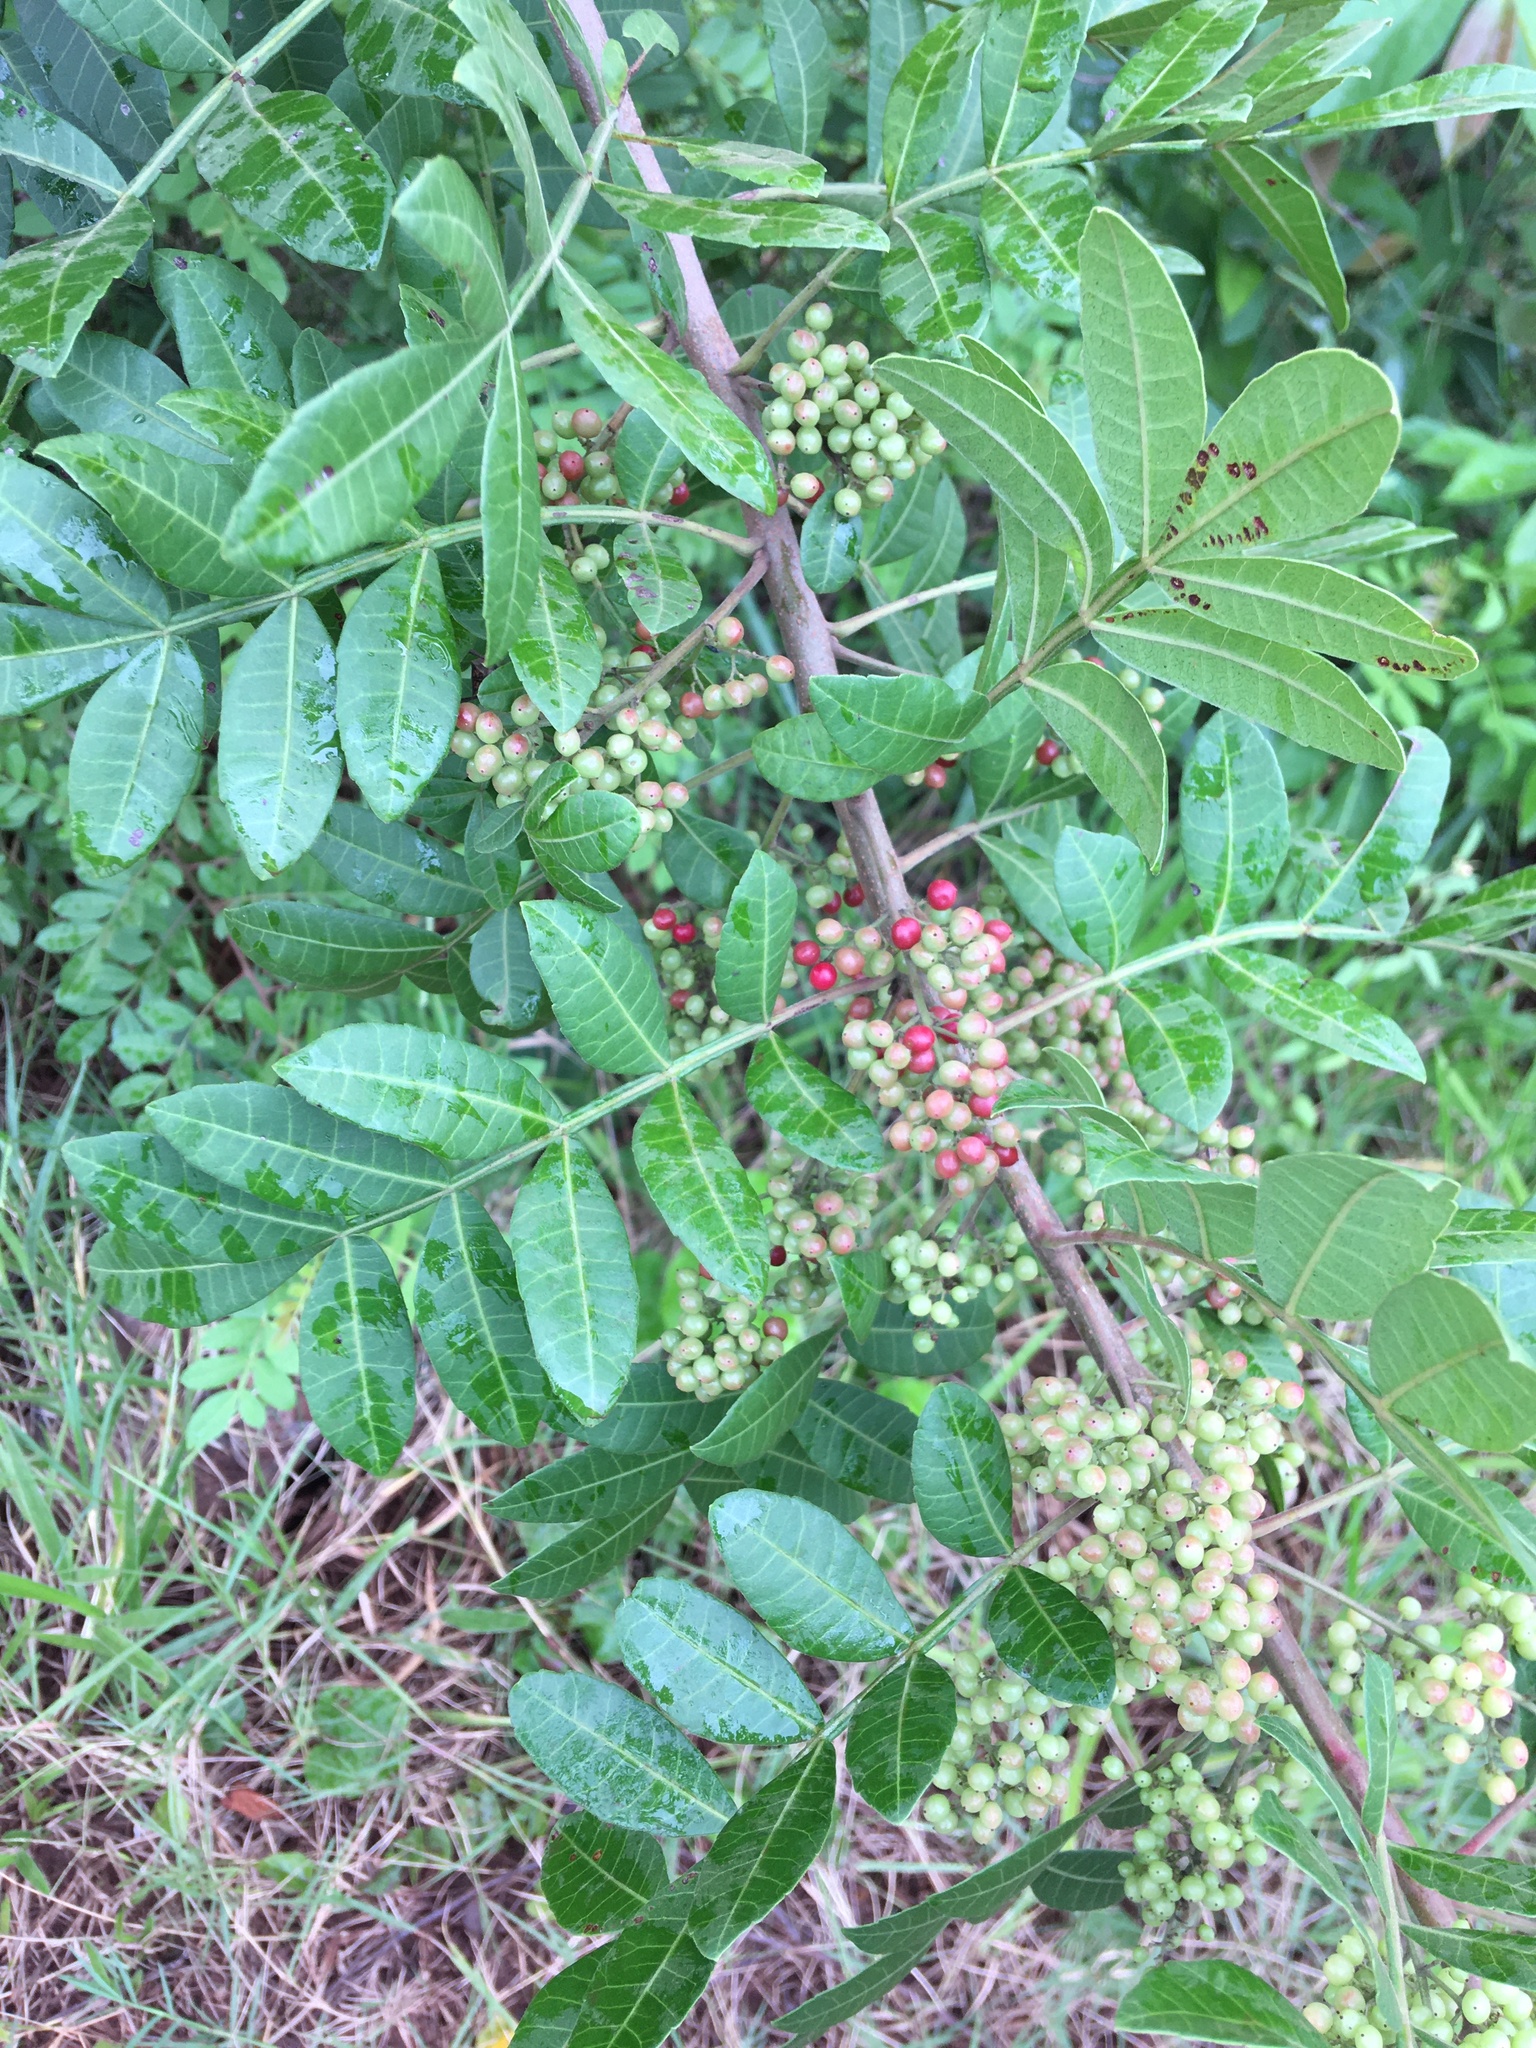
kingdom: Plantae
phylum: Tracheophyta
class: Magnoliopsida
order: Sapindales
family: Anacardiaceae
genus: Schinus
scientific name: Schinus terebinthifolia
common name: Brazilian peppertree
